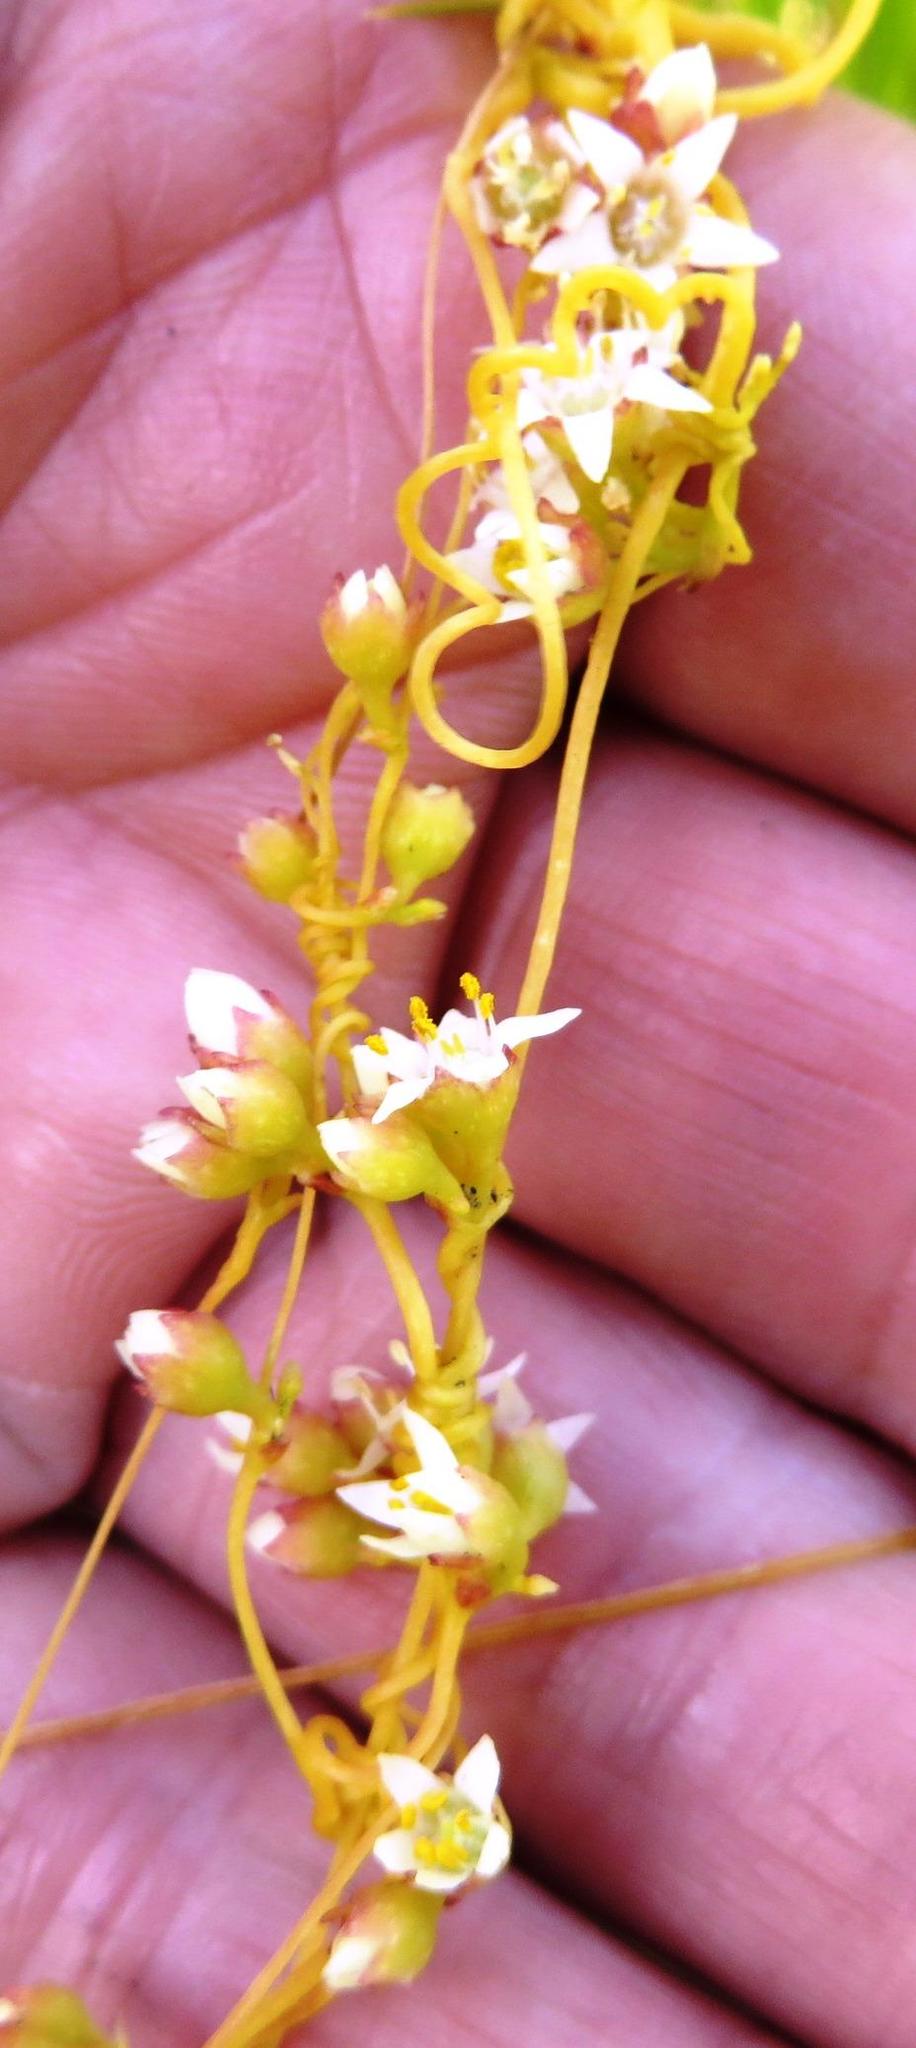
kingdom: Plantae
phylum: Tracheophyta
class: Magnoliopsida
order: Solanales
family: Convolvulaceae
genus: Cuscuta
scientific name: Cuscuta nitida
